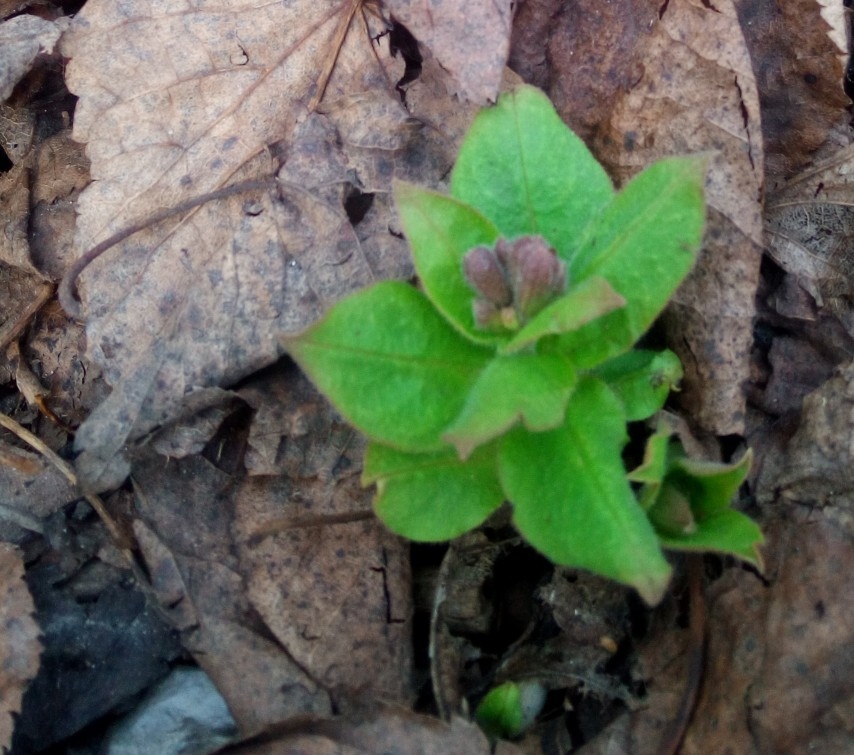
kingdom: Plantae
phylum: Tracheophyta
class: Magnoliopsida
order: Boraginales
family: Boraginaceae
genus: Pulmonaria
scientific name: Pulmonaria obscura
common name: Suffolk lungwort
